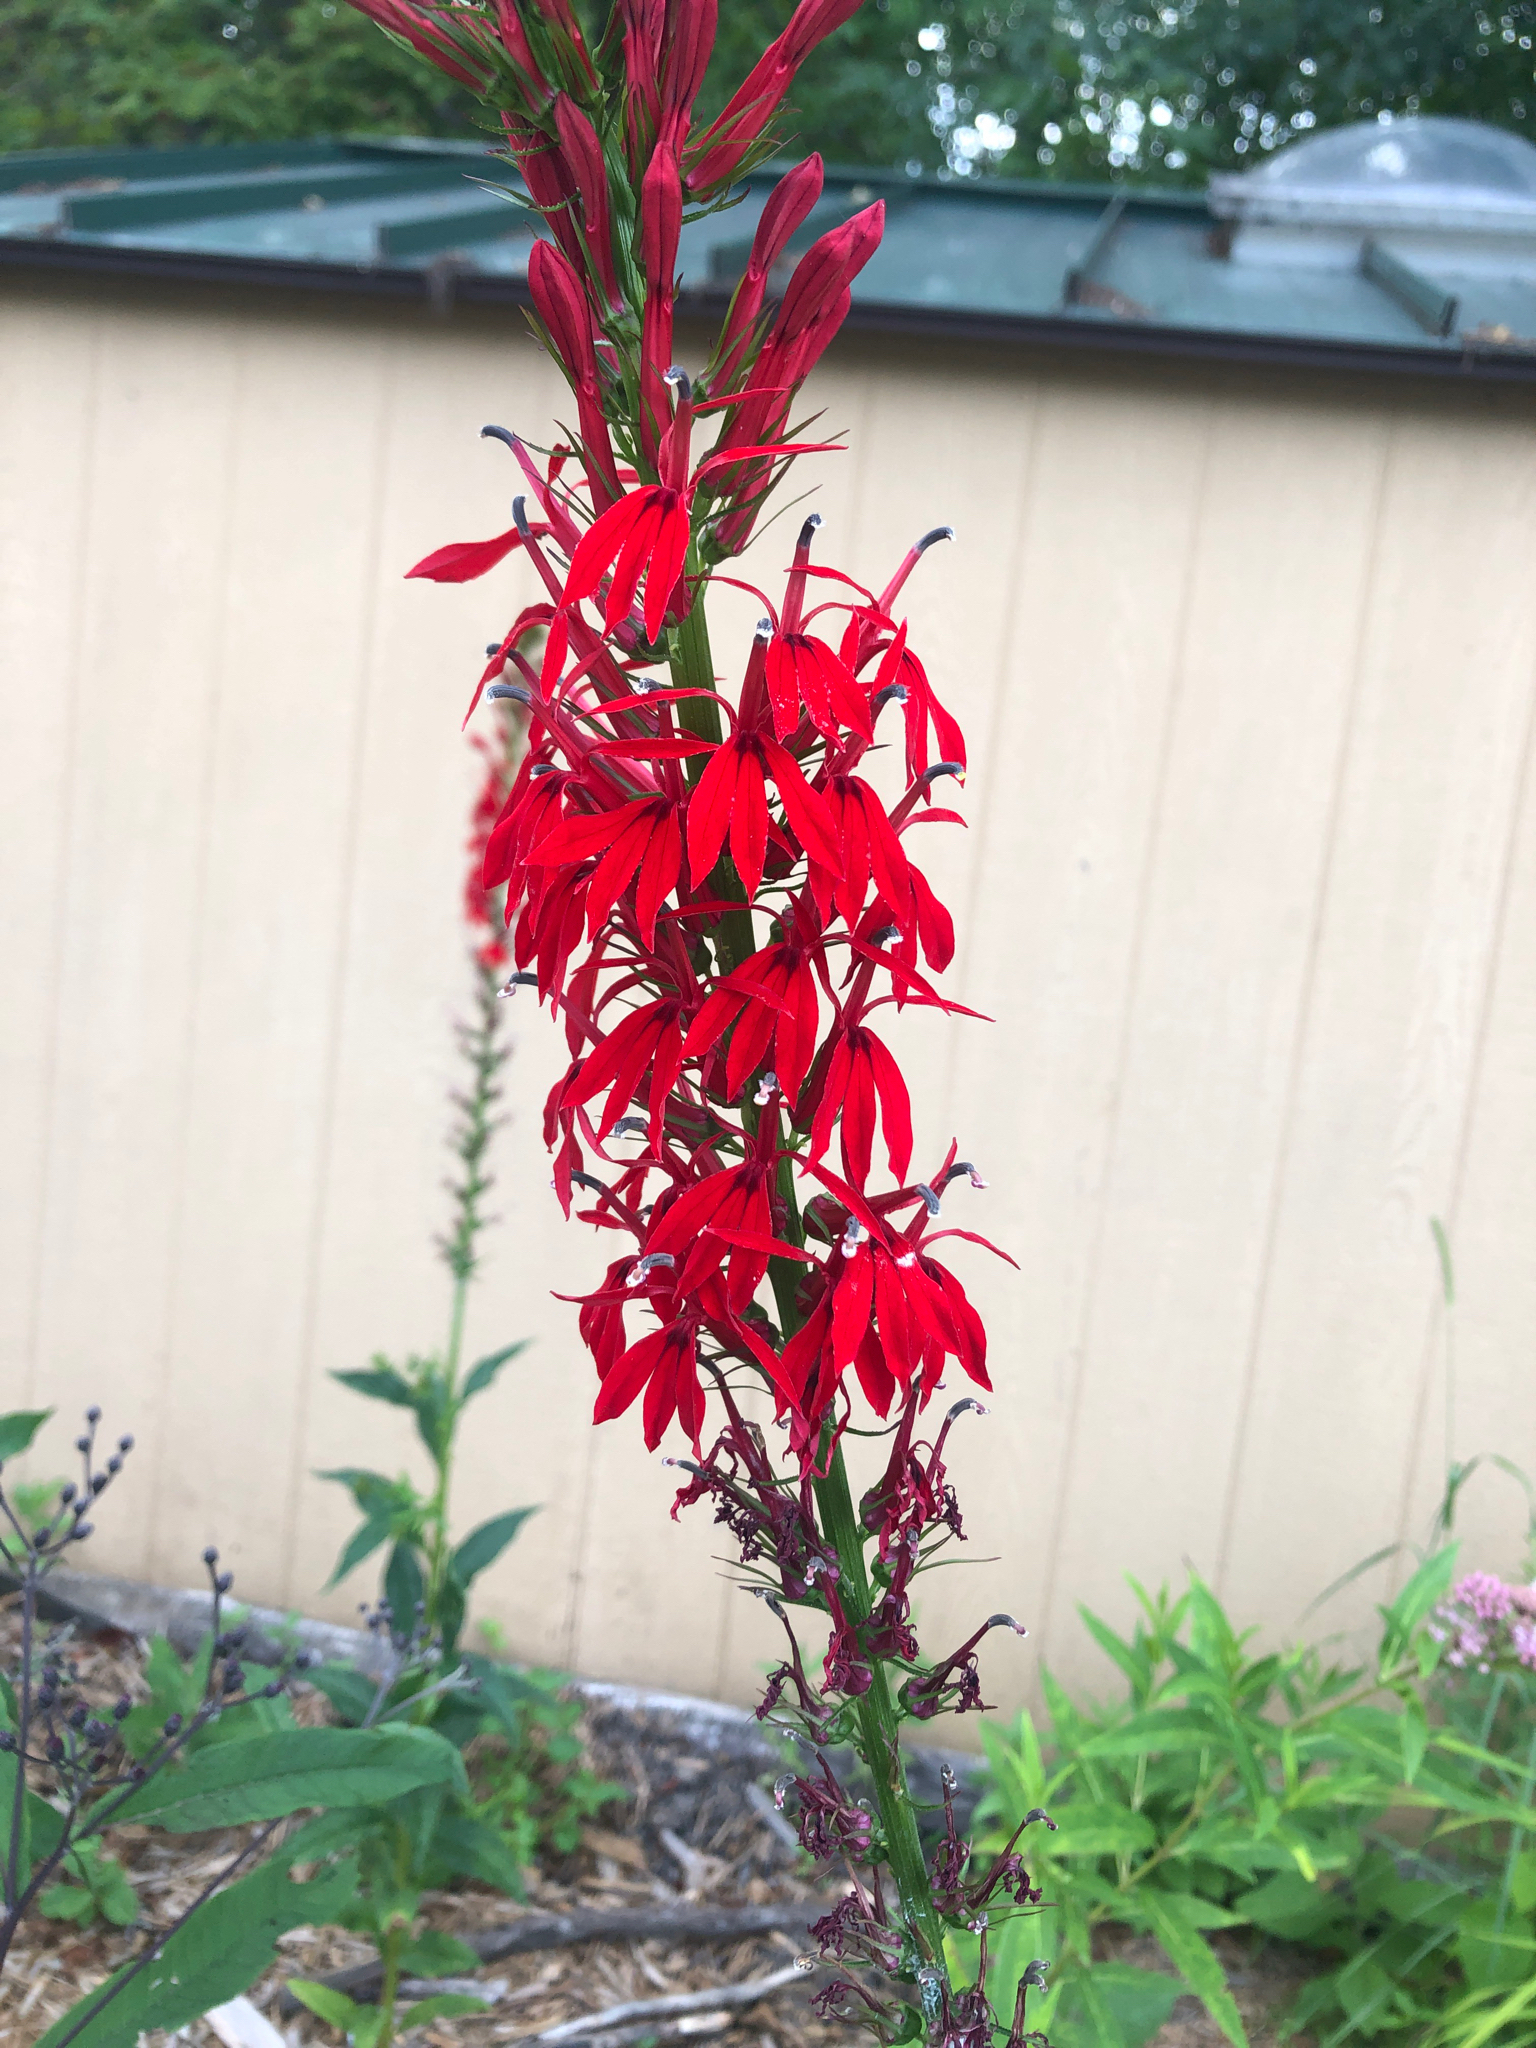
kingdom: Plantae
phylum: Tracheophyta
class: Magnoliopsida
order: Asterales
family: Campanulaceae
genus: Lobelia
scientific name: Lobelia cardinalis
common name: Cardinal flower
